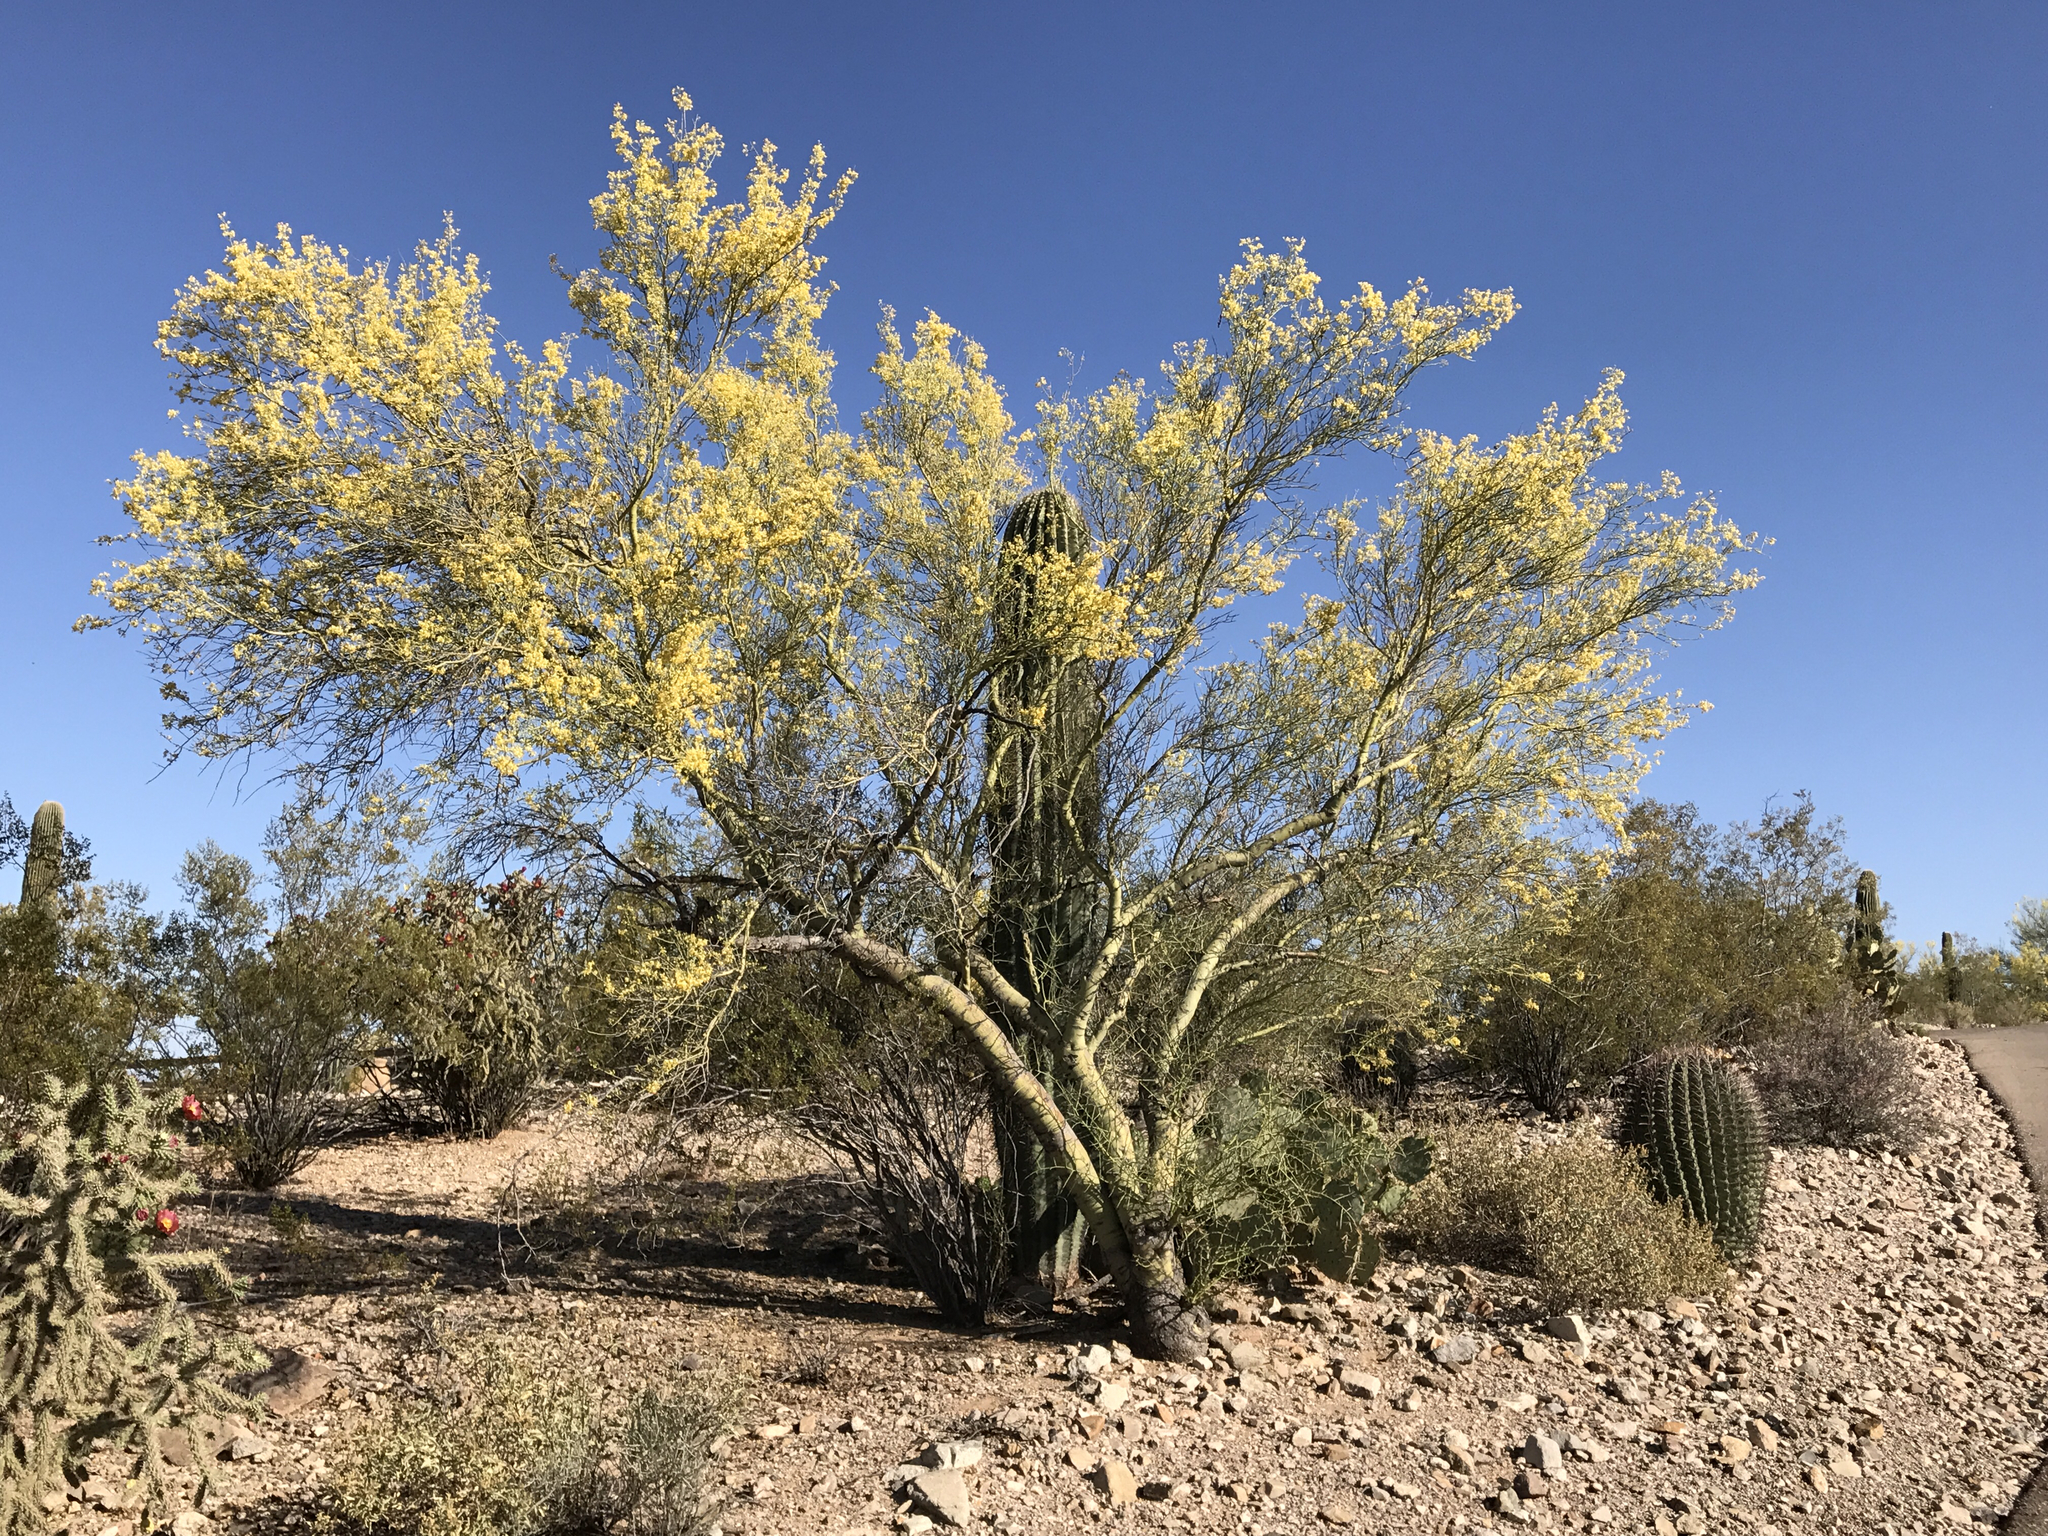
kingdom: Plantae
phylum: Tracheophyta
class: Magnoliopsida
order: Fabales
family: Fabaceae
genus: Parkinsonia
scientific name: Parkinsonia microphylla
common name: Yellow paloverde
